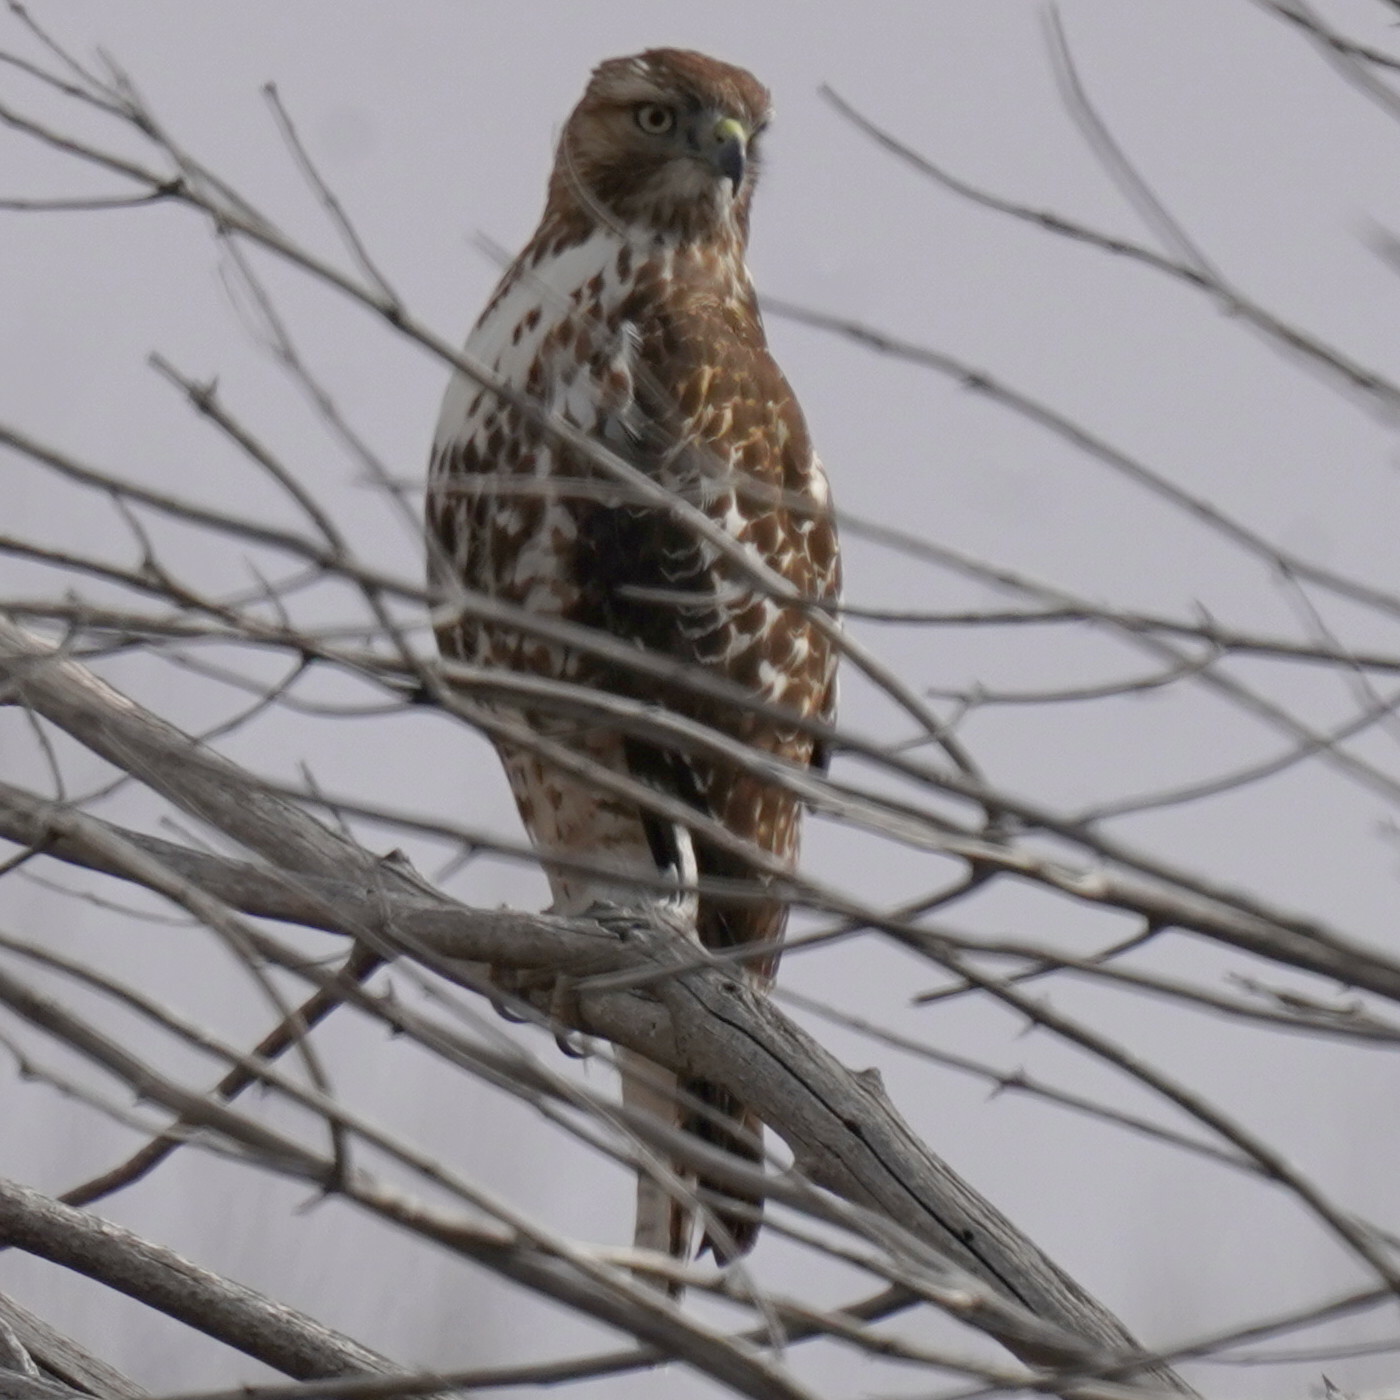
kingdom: Animalia
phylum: Chordata
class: Aves
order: Accipitriformes
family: Accipitridae
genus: Buteo
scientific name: Buteo jamaicensis
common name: Red-tailed hawk
